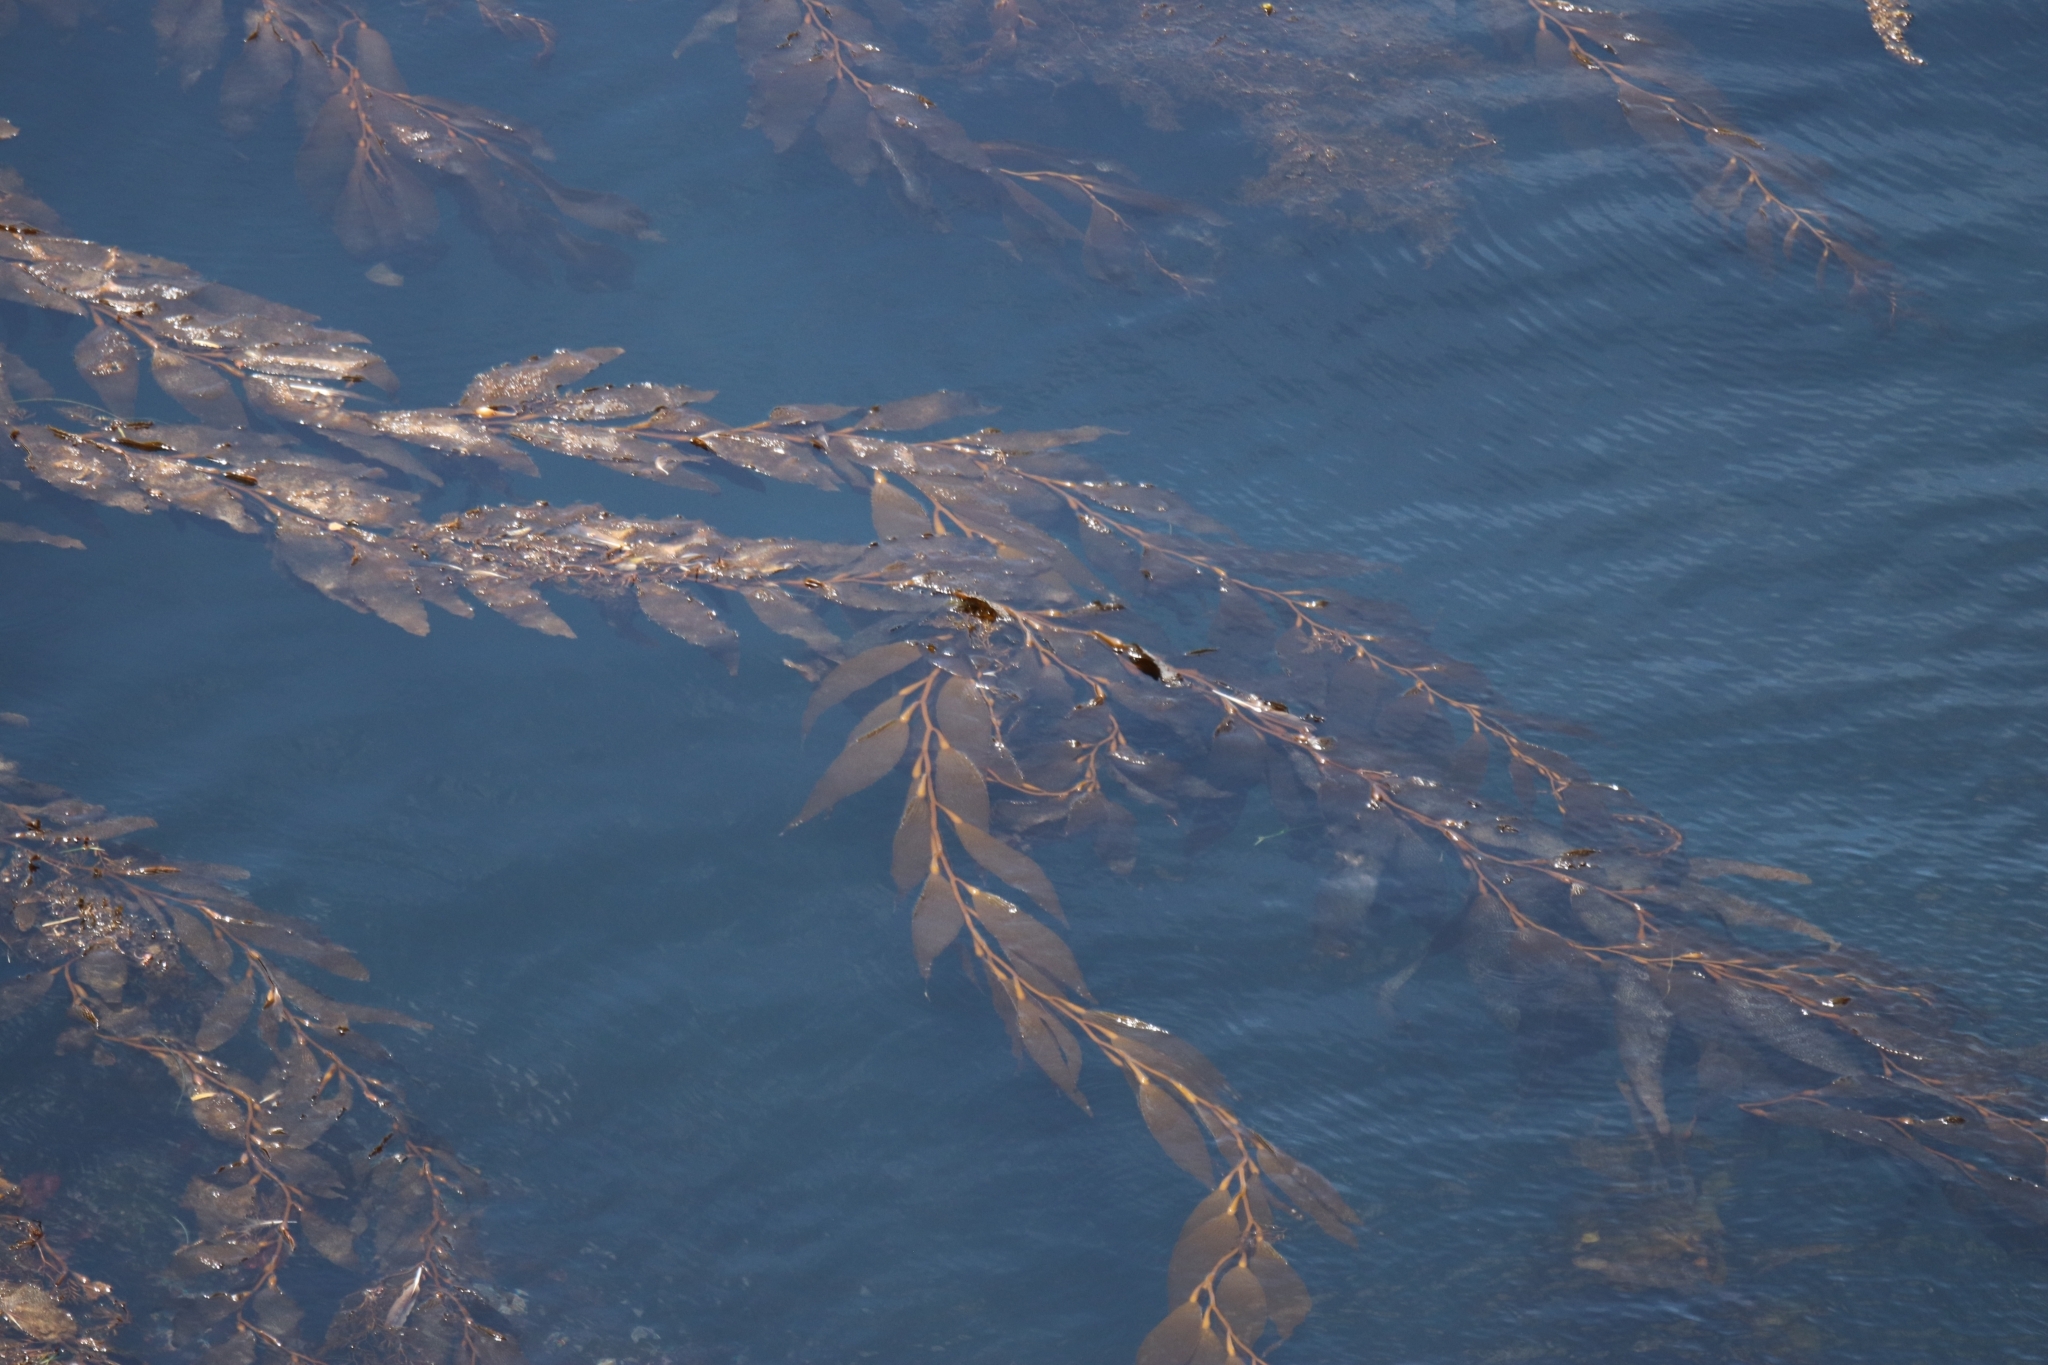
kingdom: Chromista
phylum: Ochrophyta
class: Phaeophyceae
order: Laminariales
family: Laminariaceae
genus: Macrocystis
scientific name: Macrocystis pyrifera
